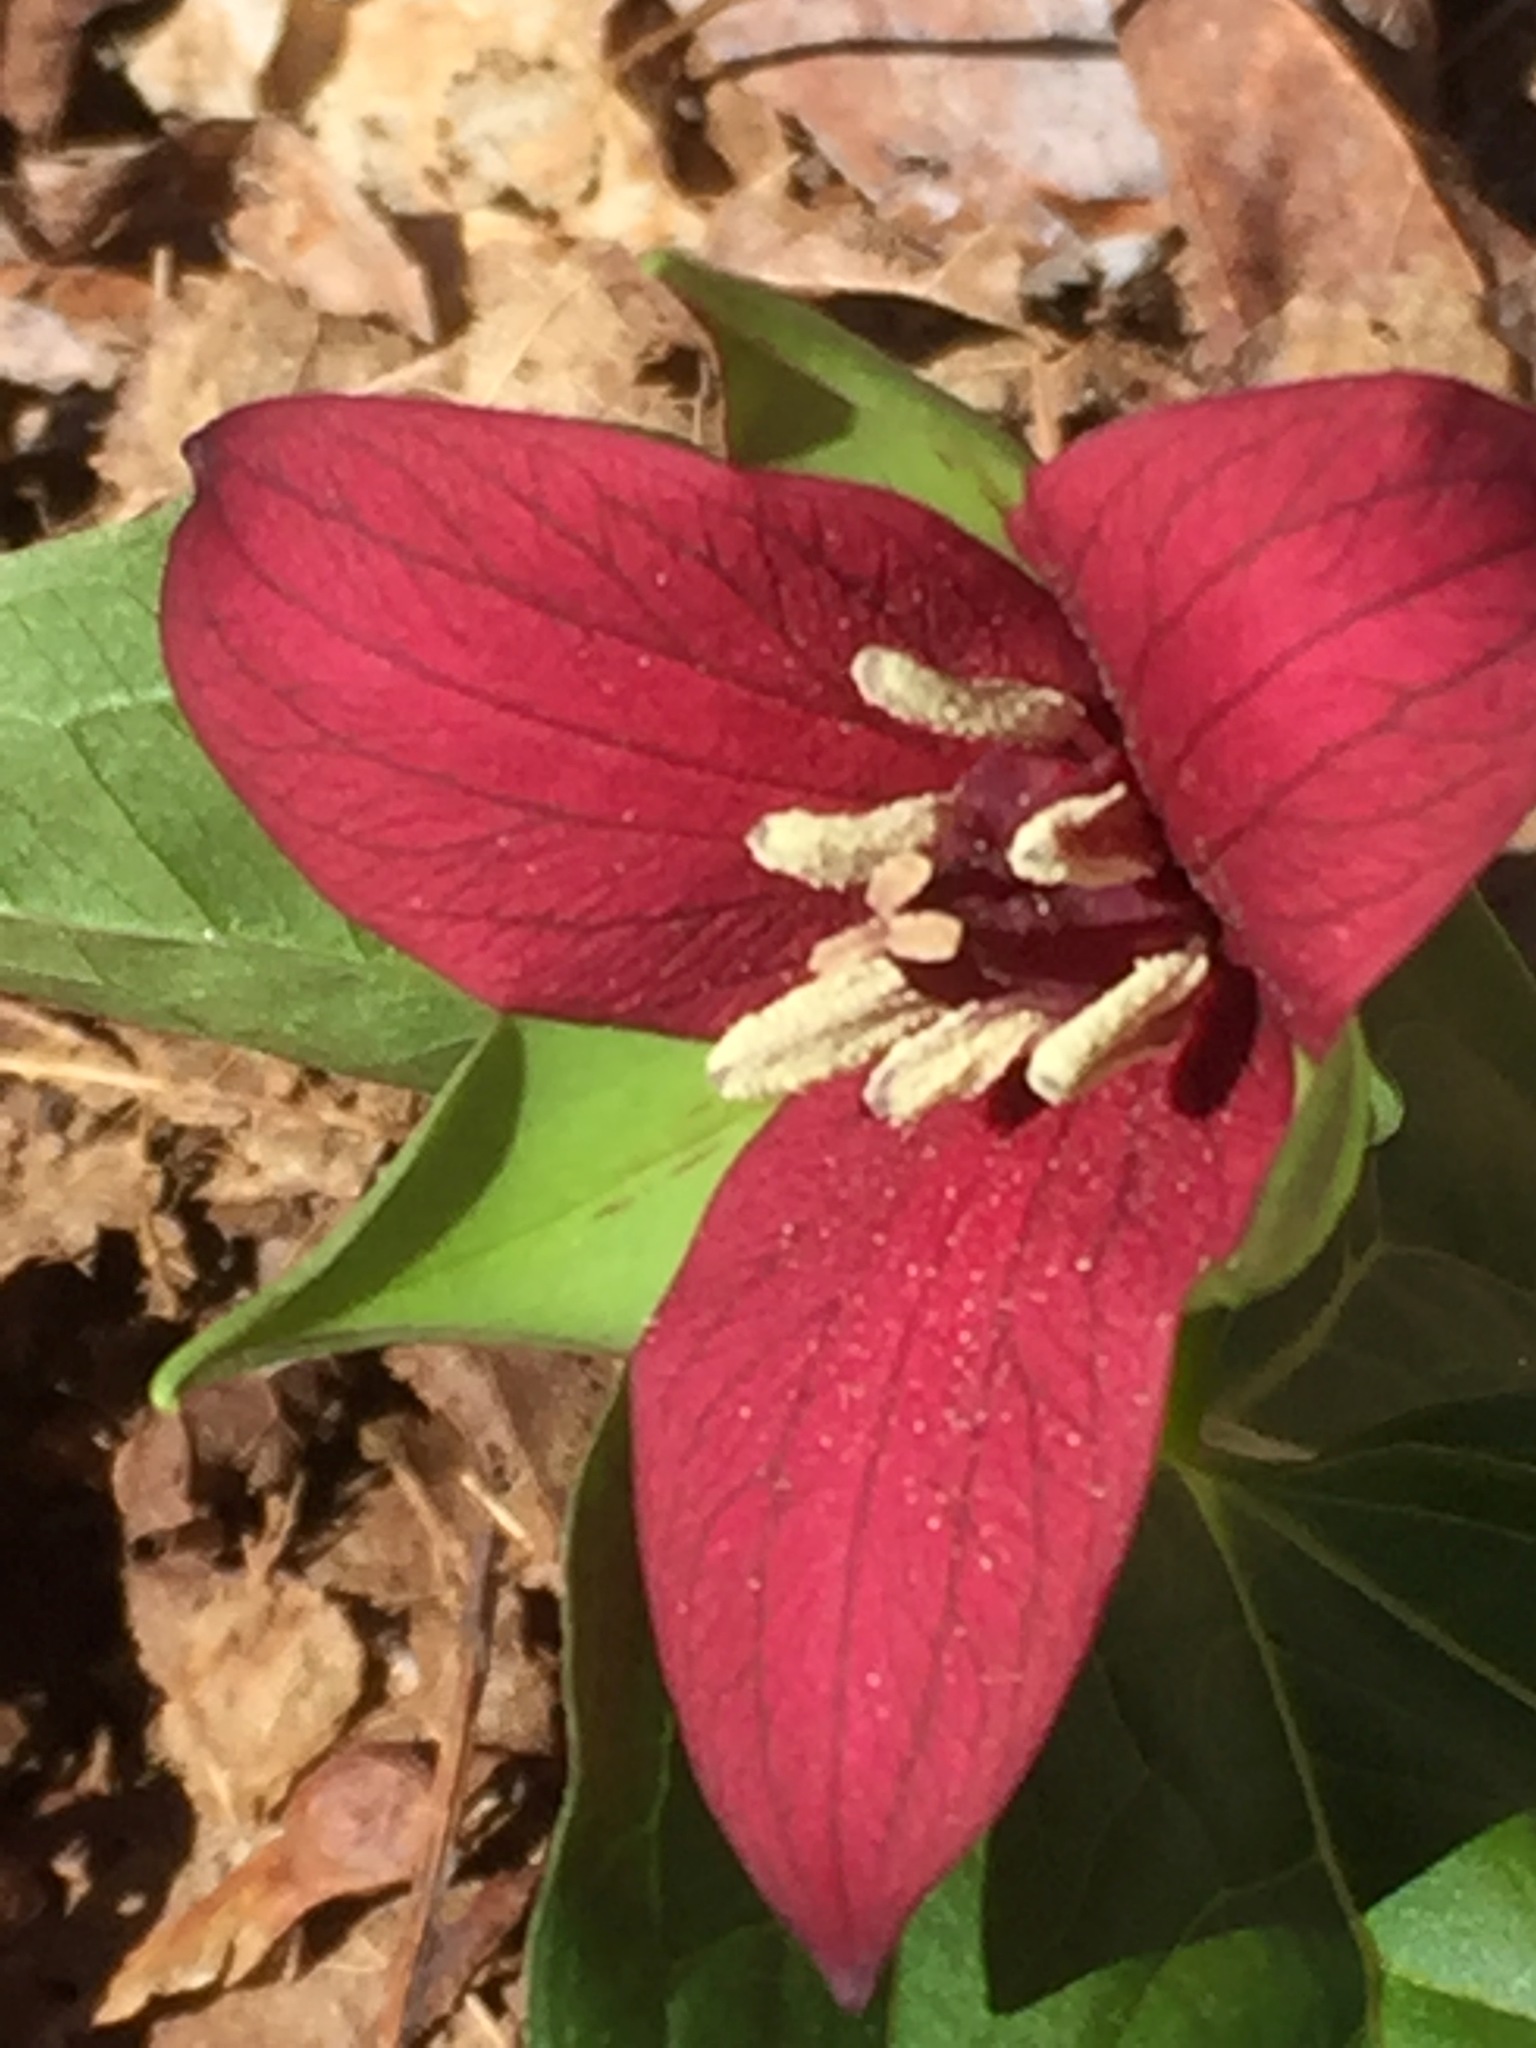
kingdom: Plantae
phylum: Tracheophyta
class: Liliopsida
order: Liliales
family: Melanthiaceae
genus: Trillium
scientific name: Trillium erectum
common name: Purple trillium
